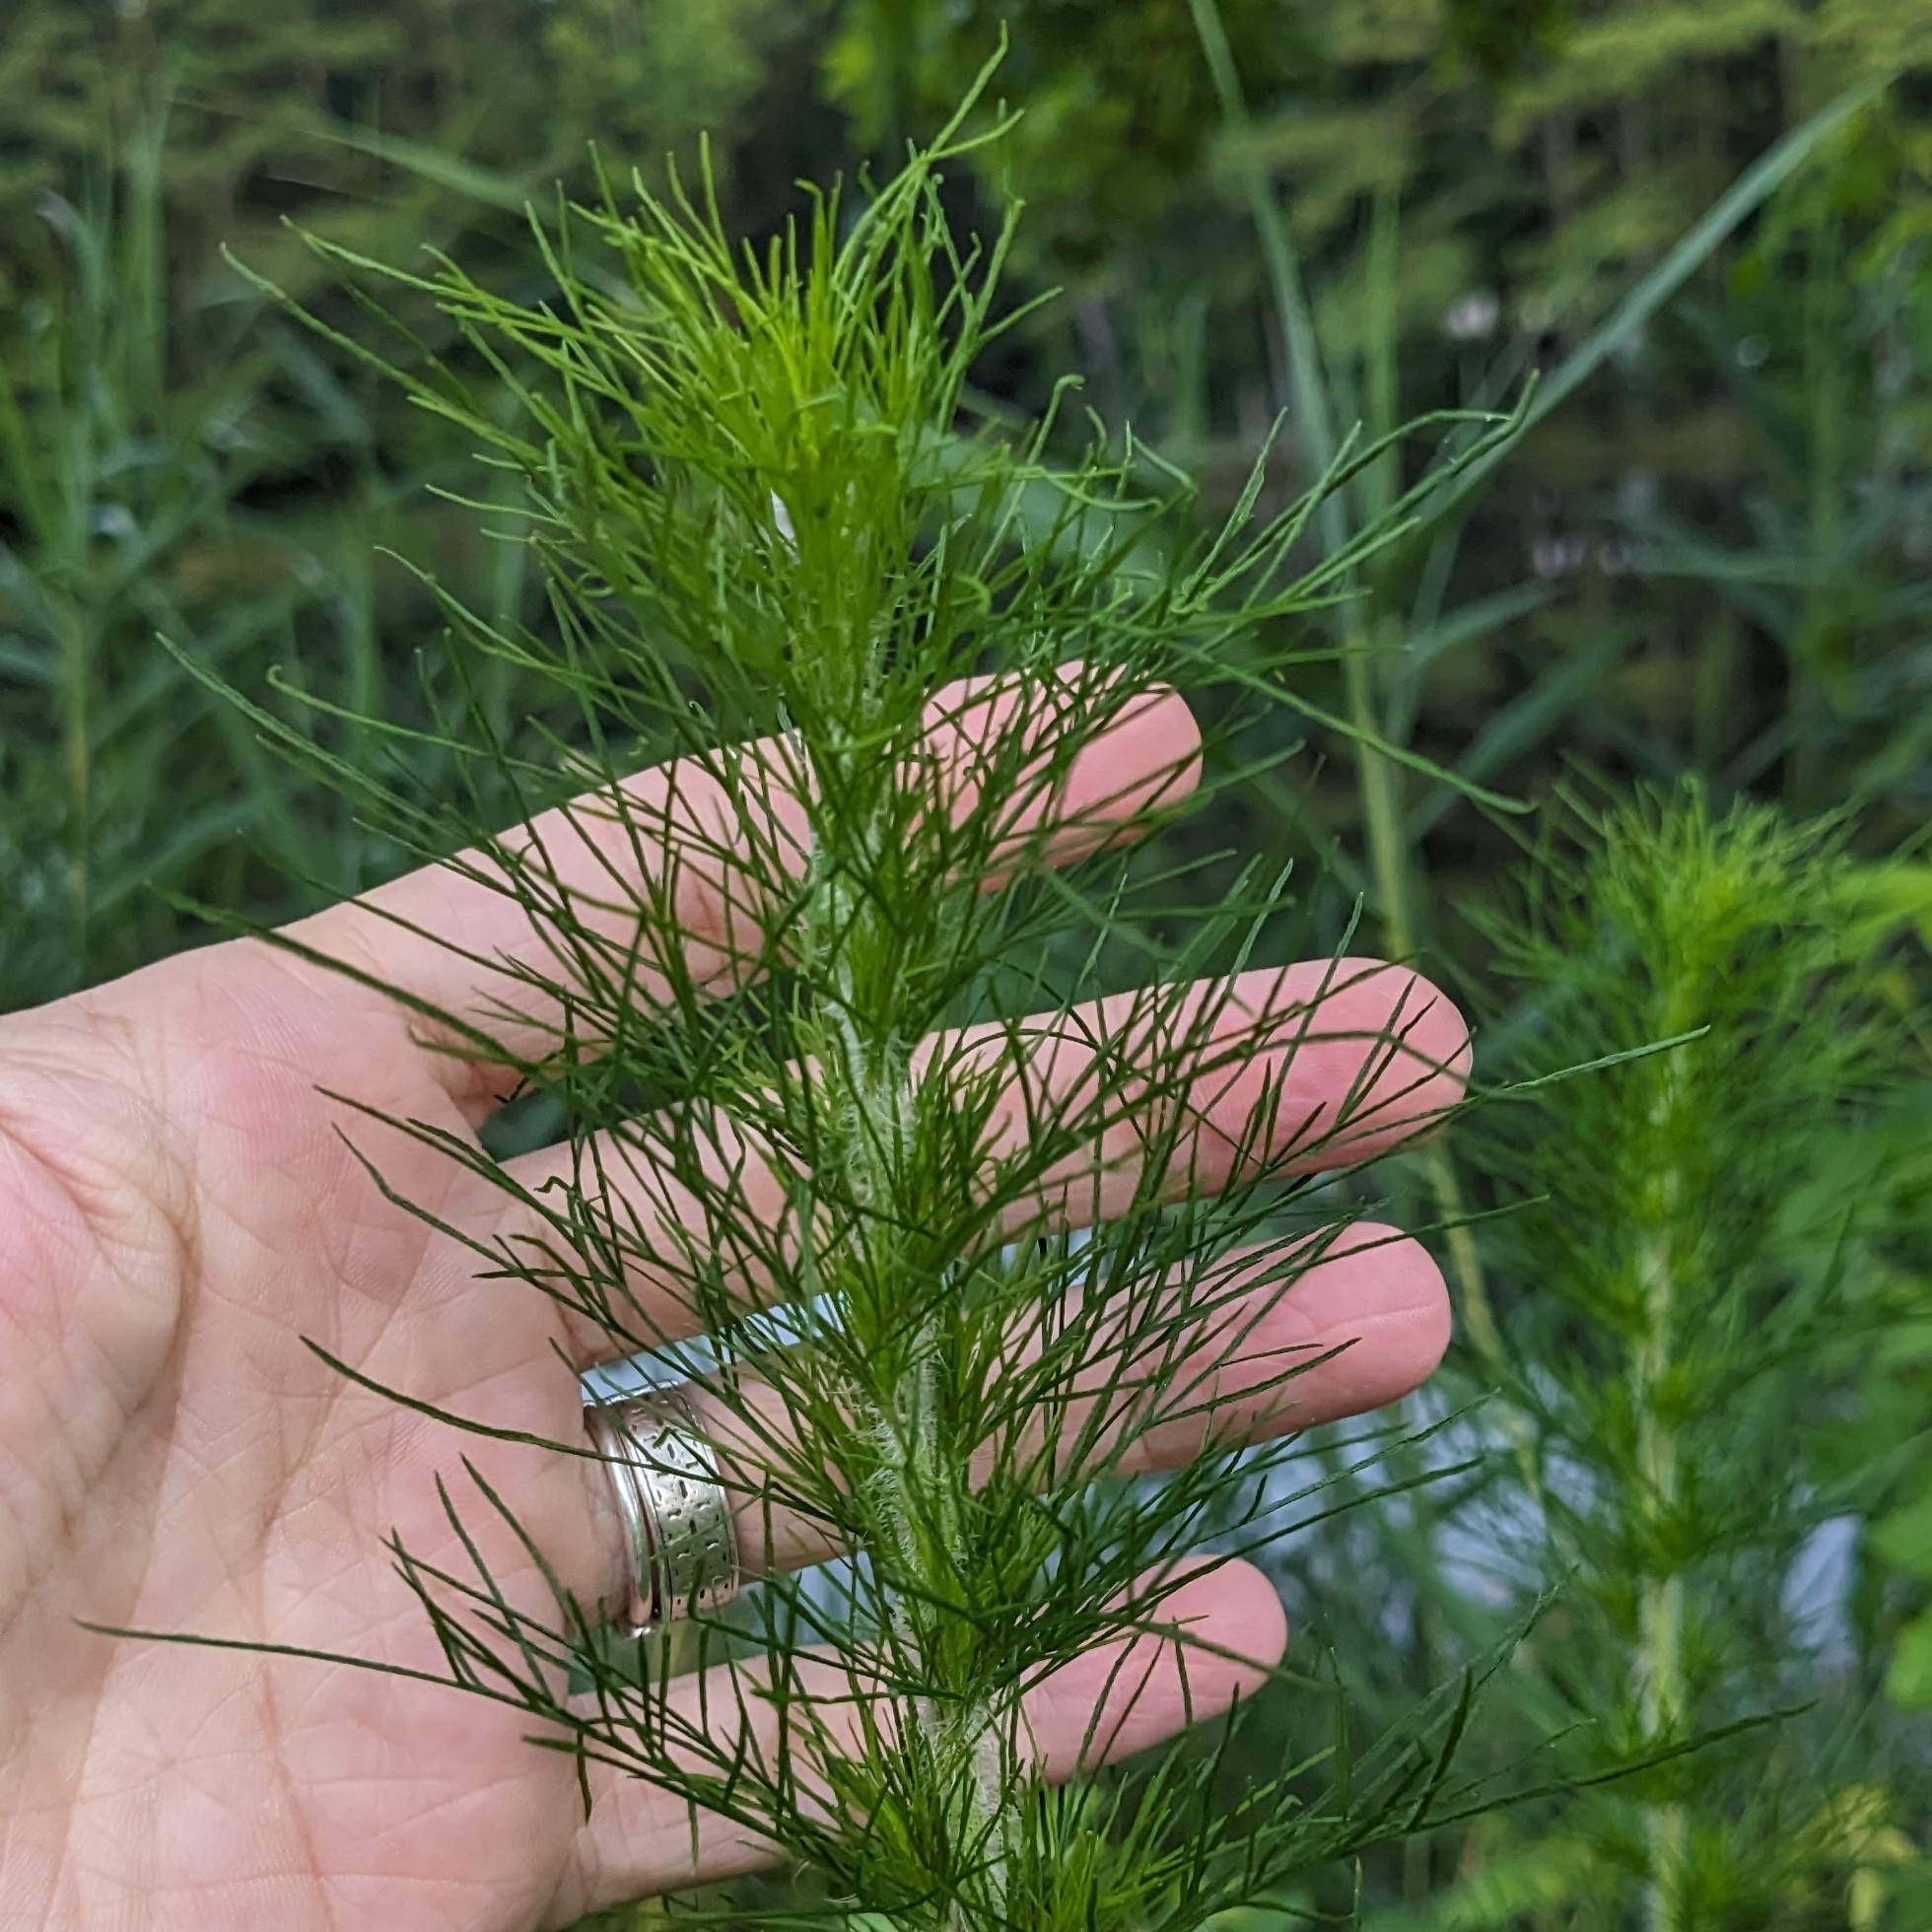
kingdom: Plantae
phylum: Tracheophyta
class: Magnoliopsida
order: Asterales
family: Asteraceae
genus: Eupatorium
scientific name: Eupatorium capillifolium
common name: Dog-fennel
